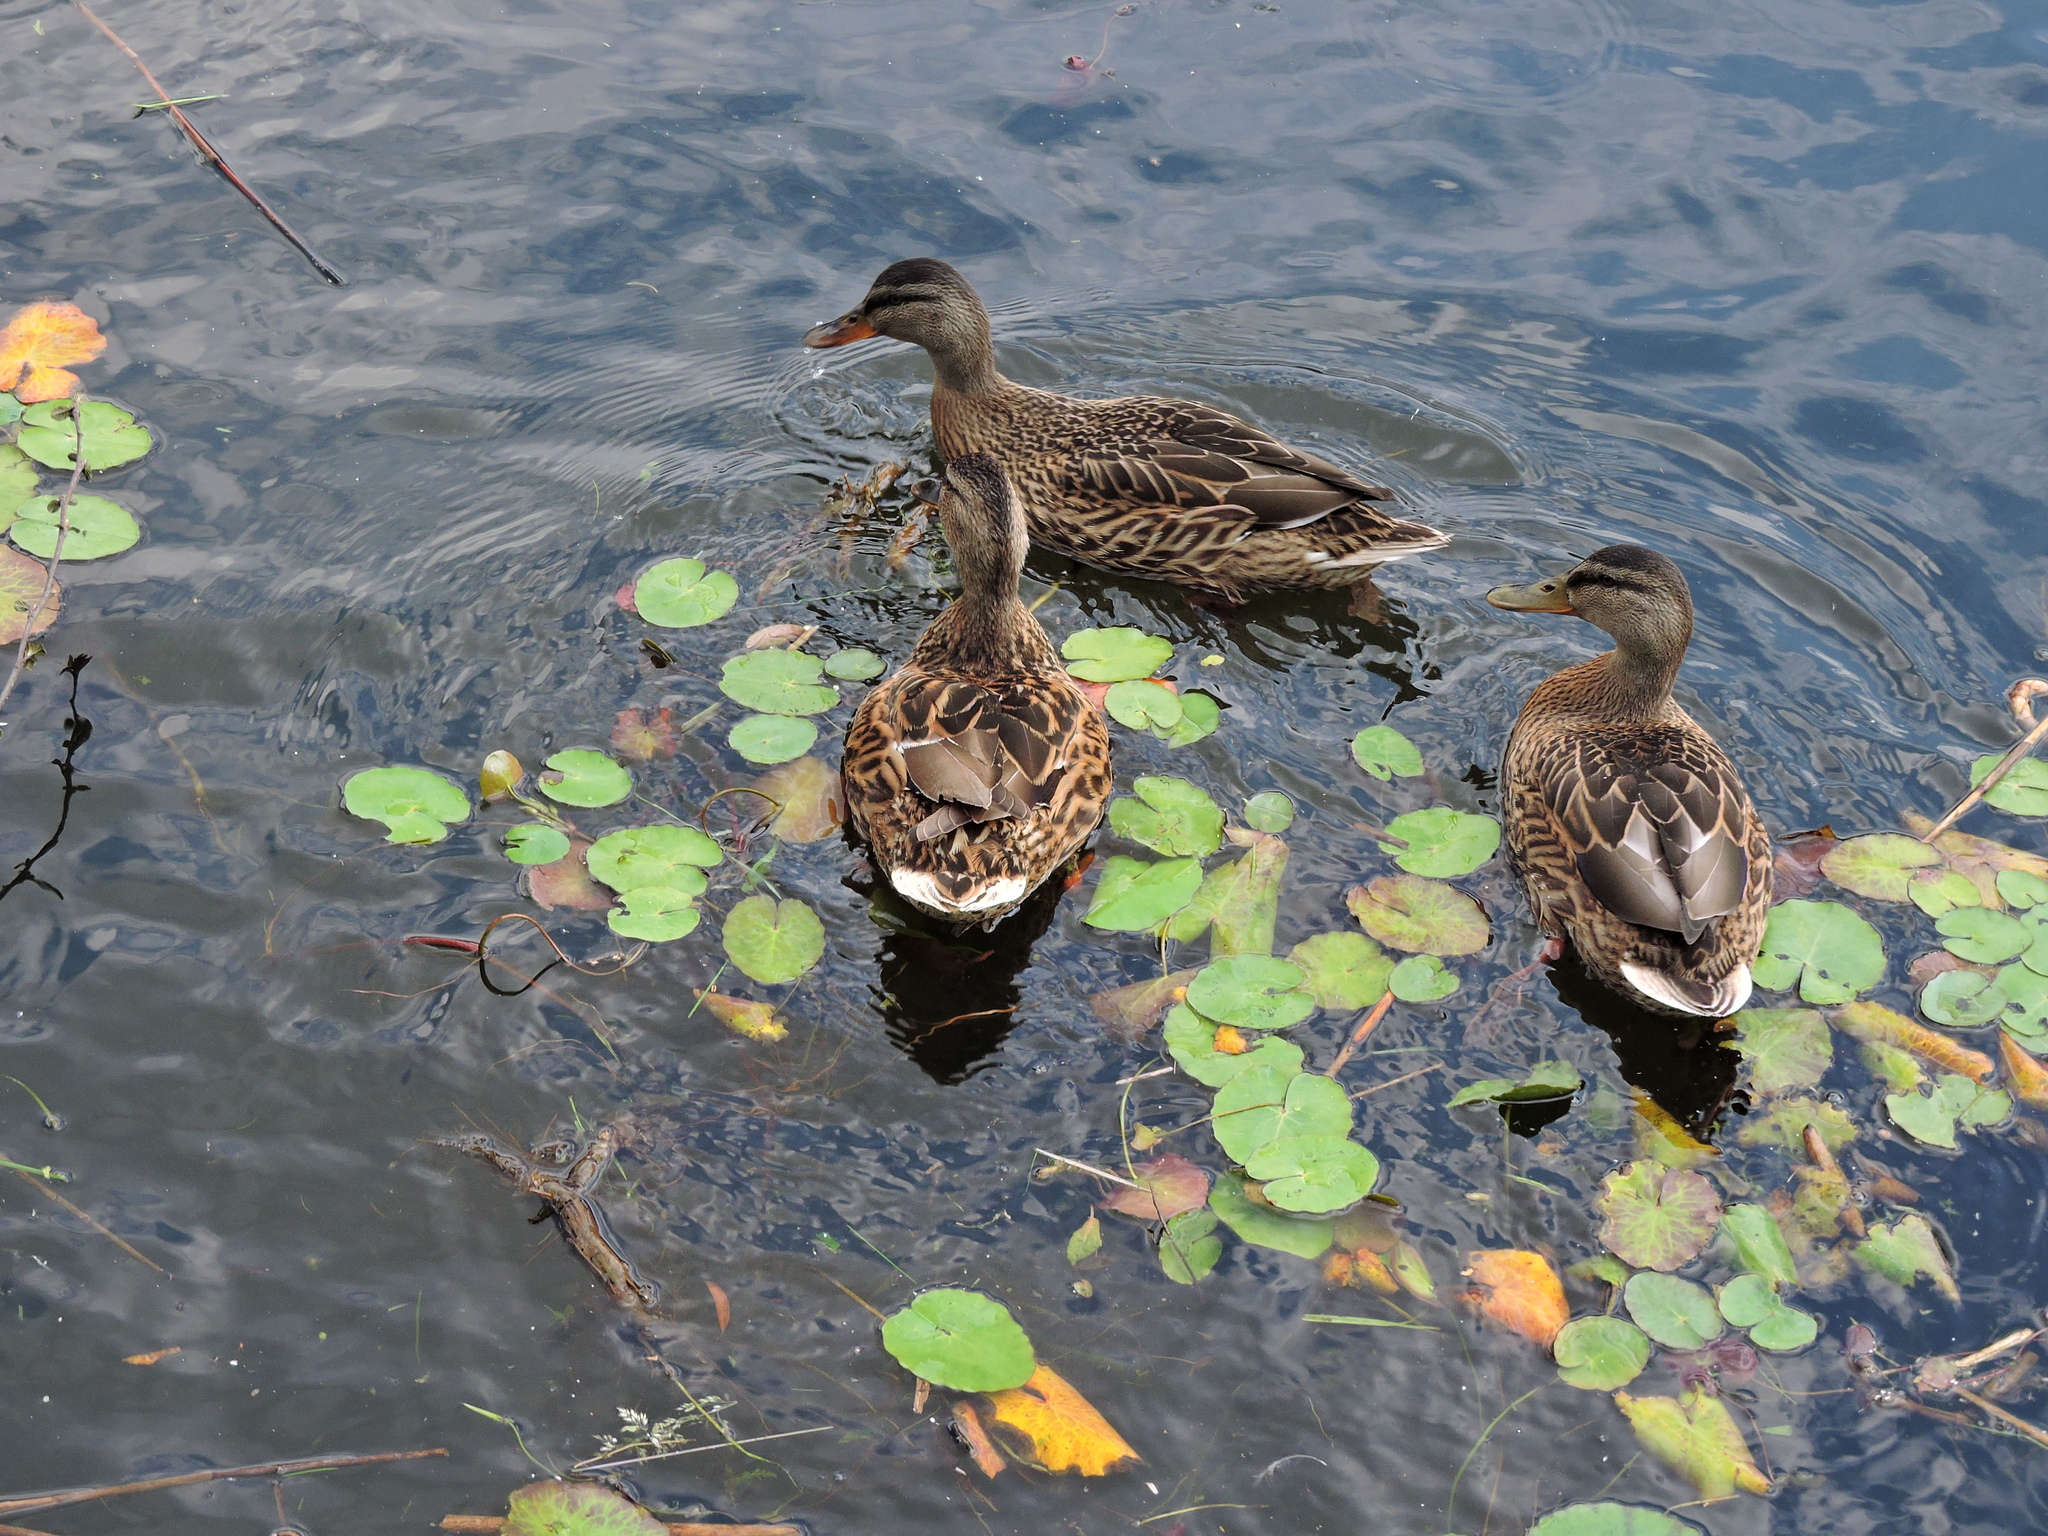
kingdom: Animalia
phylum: Chordata
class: Aves
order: Anseriformes
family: Anatidae
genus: Anas
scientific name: Anas platyrhynchos
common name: Mallard
